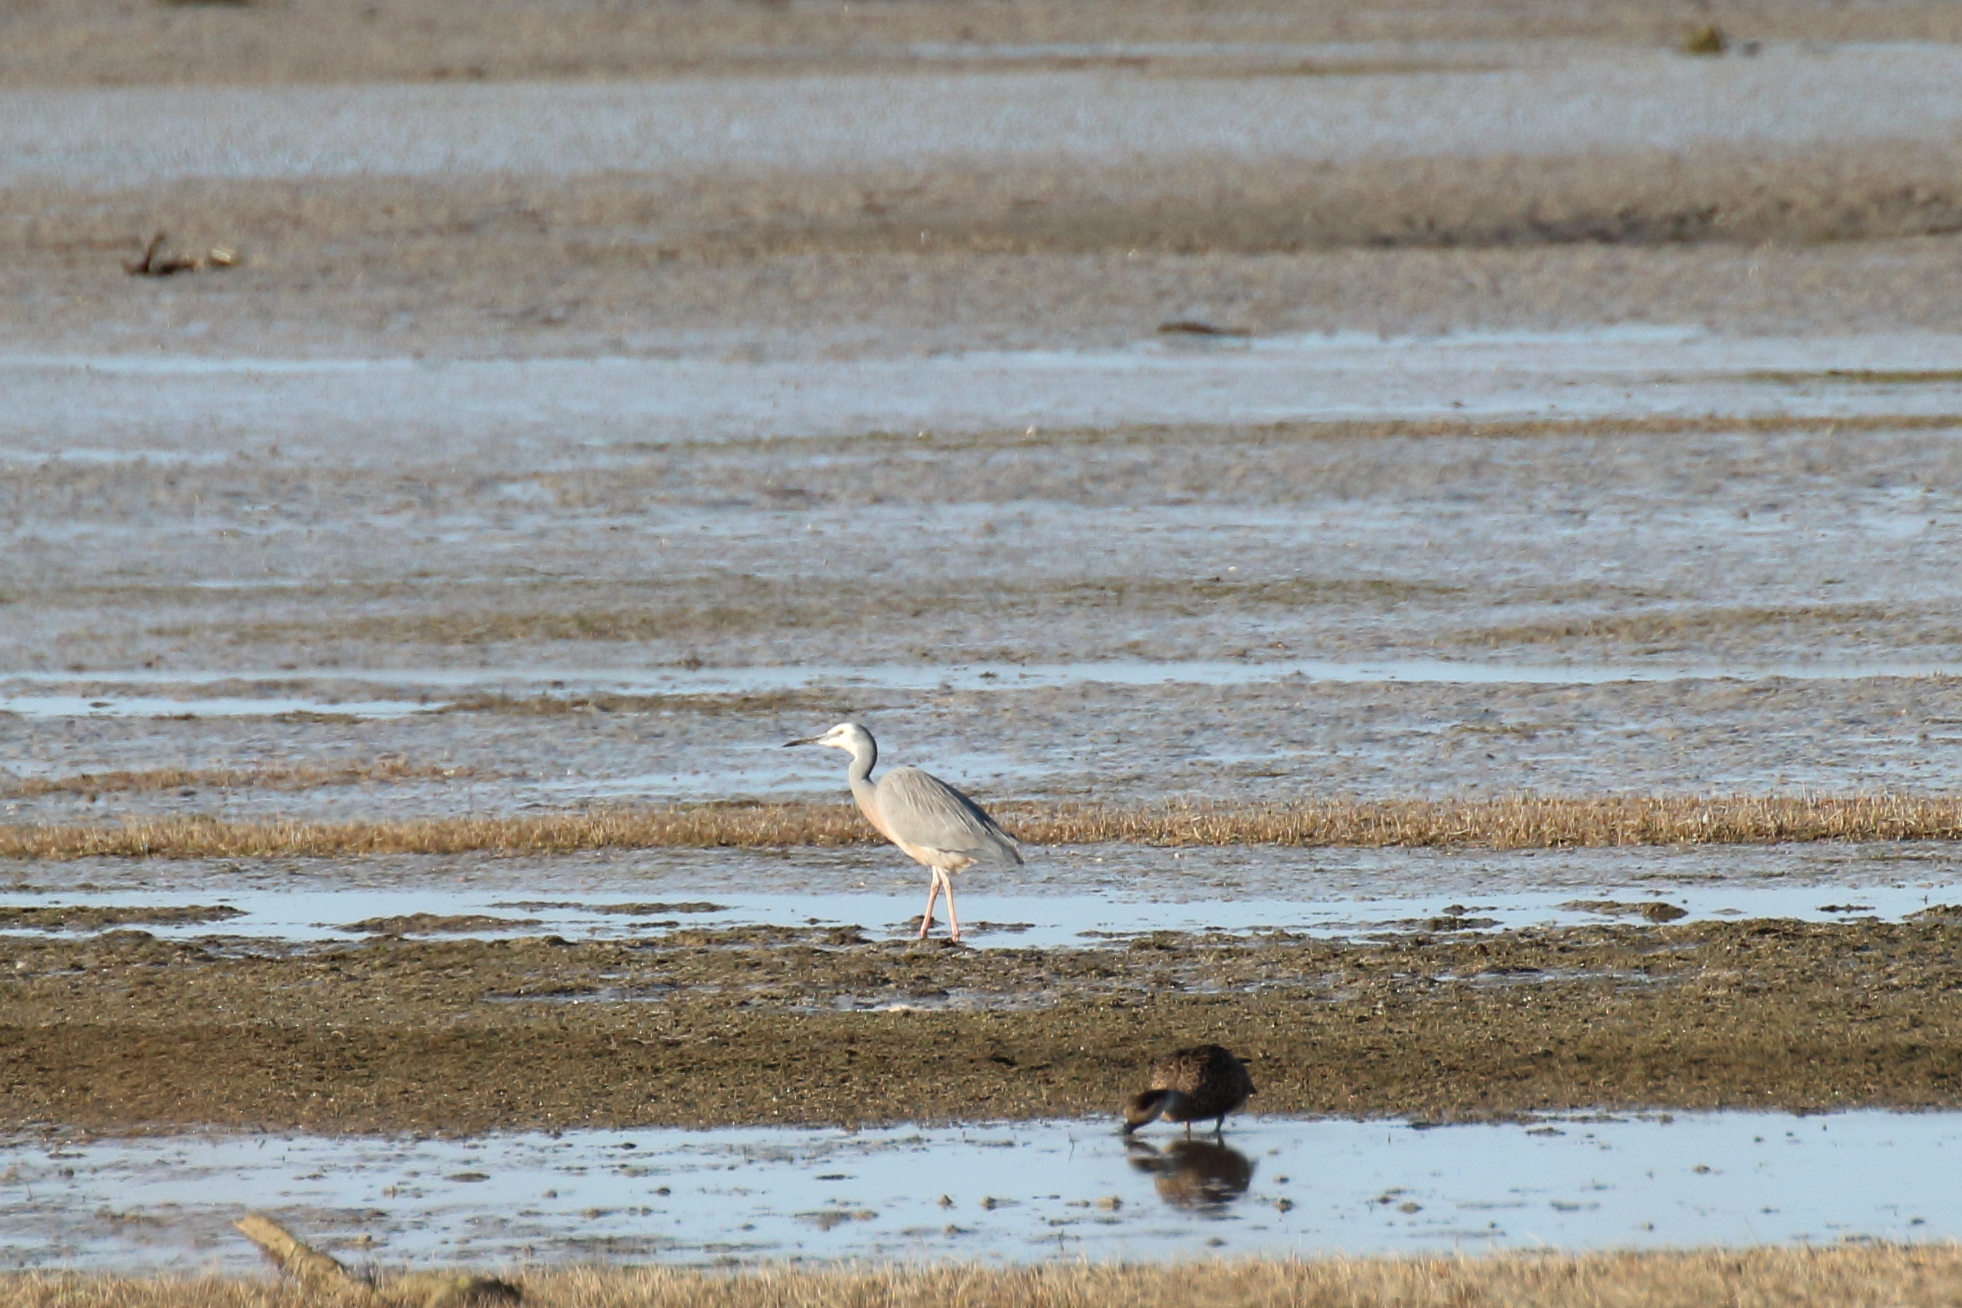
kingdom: Animalia
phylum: Chordata
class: Aves
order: Pelecaniformes
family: Ardeidae
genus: Egretta
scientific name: Egretta novaehollandiae
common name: White-faced heron
